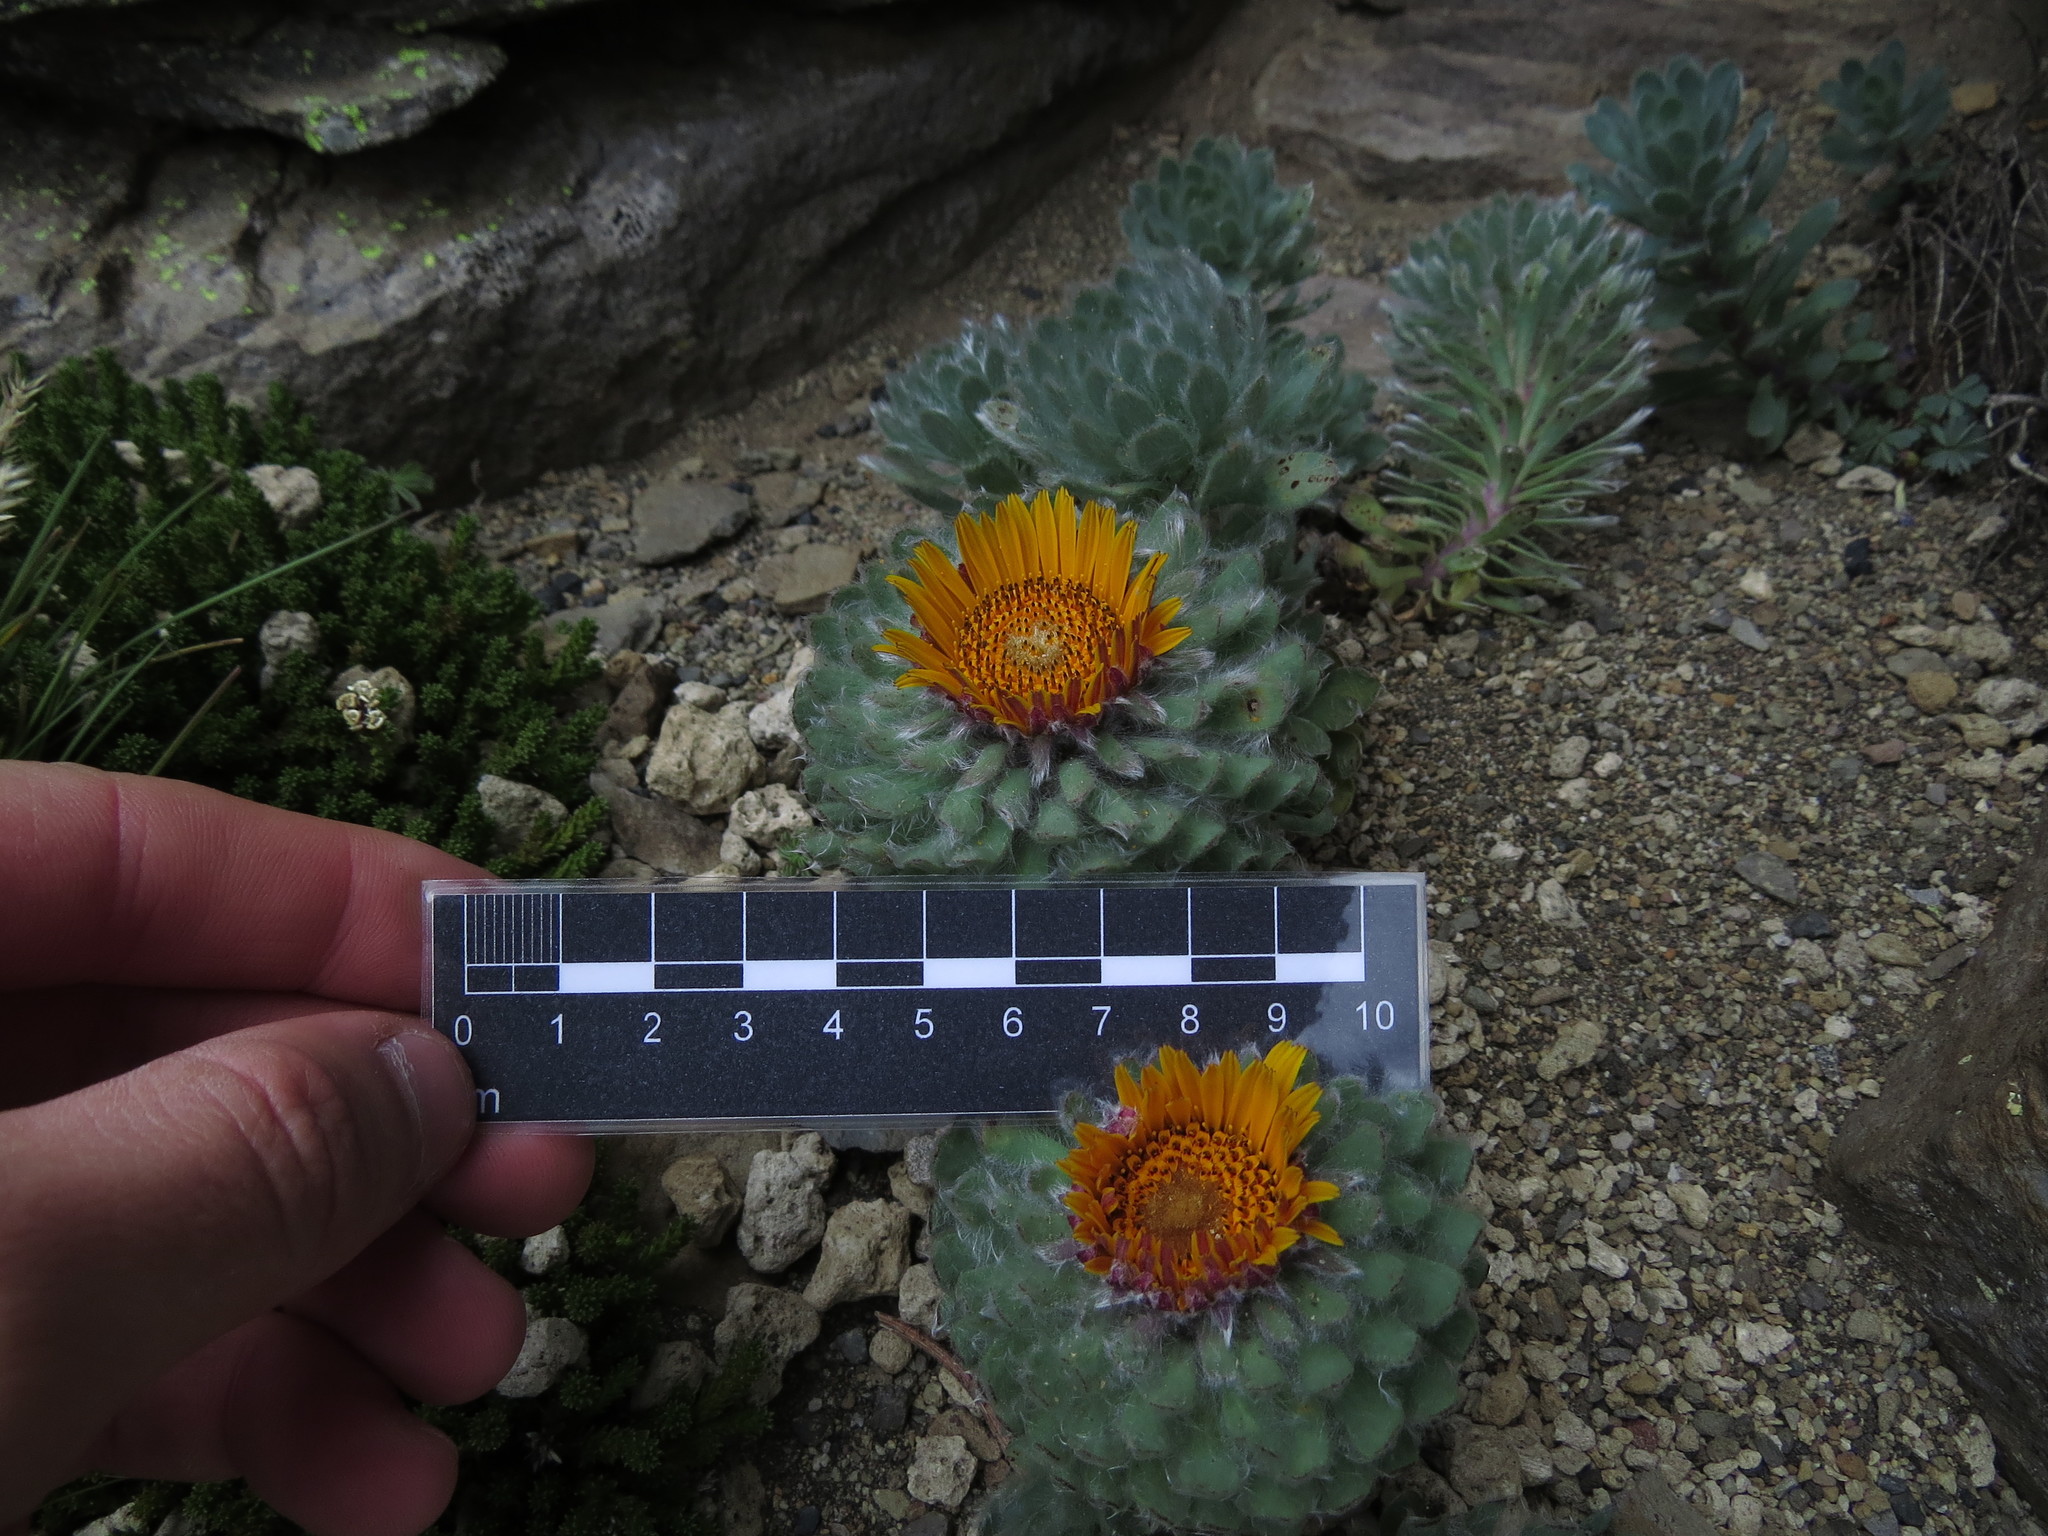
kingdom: Plantae
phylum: Tracheophyta
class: Magnoliopsida
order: Asterales
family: Asteraceae
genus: Chaetanthera
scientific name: Chaetanthera villosa
